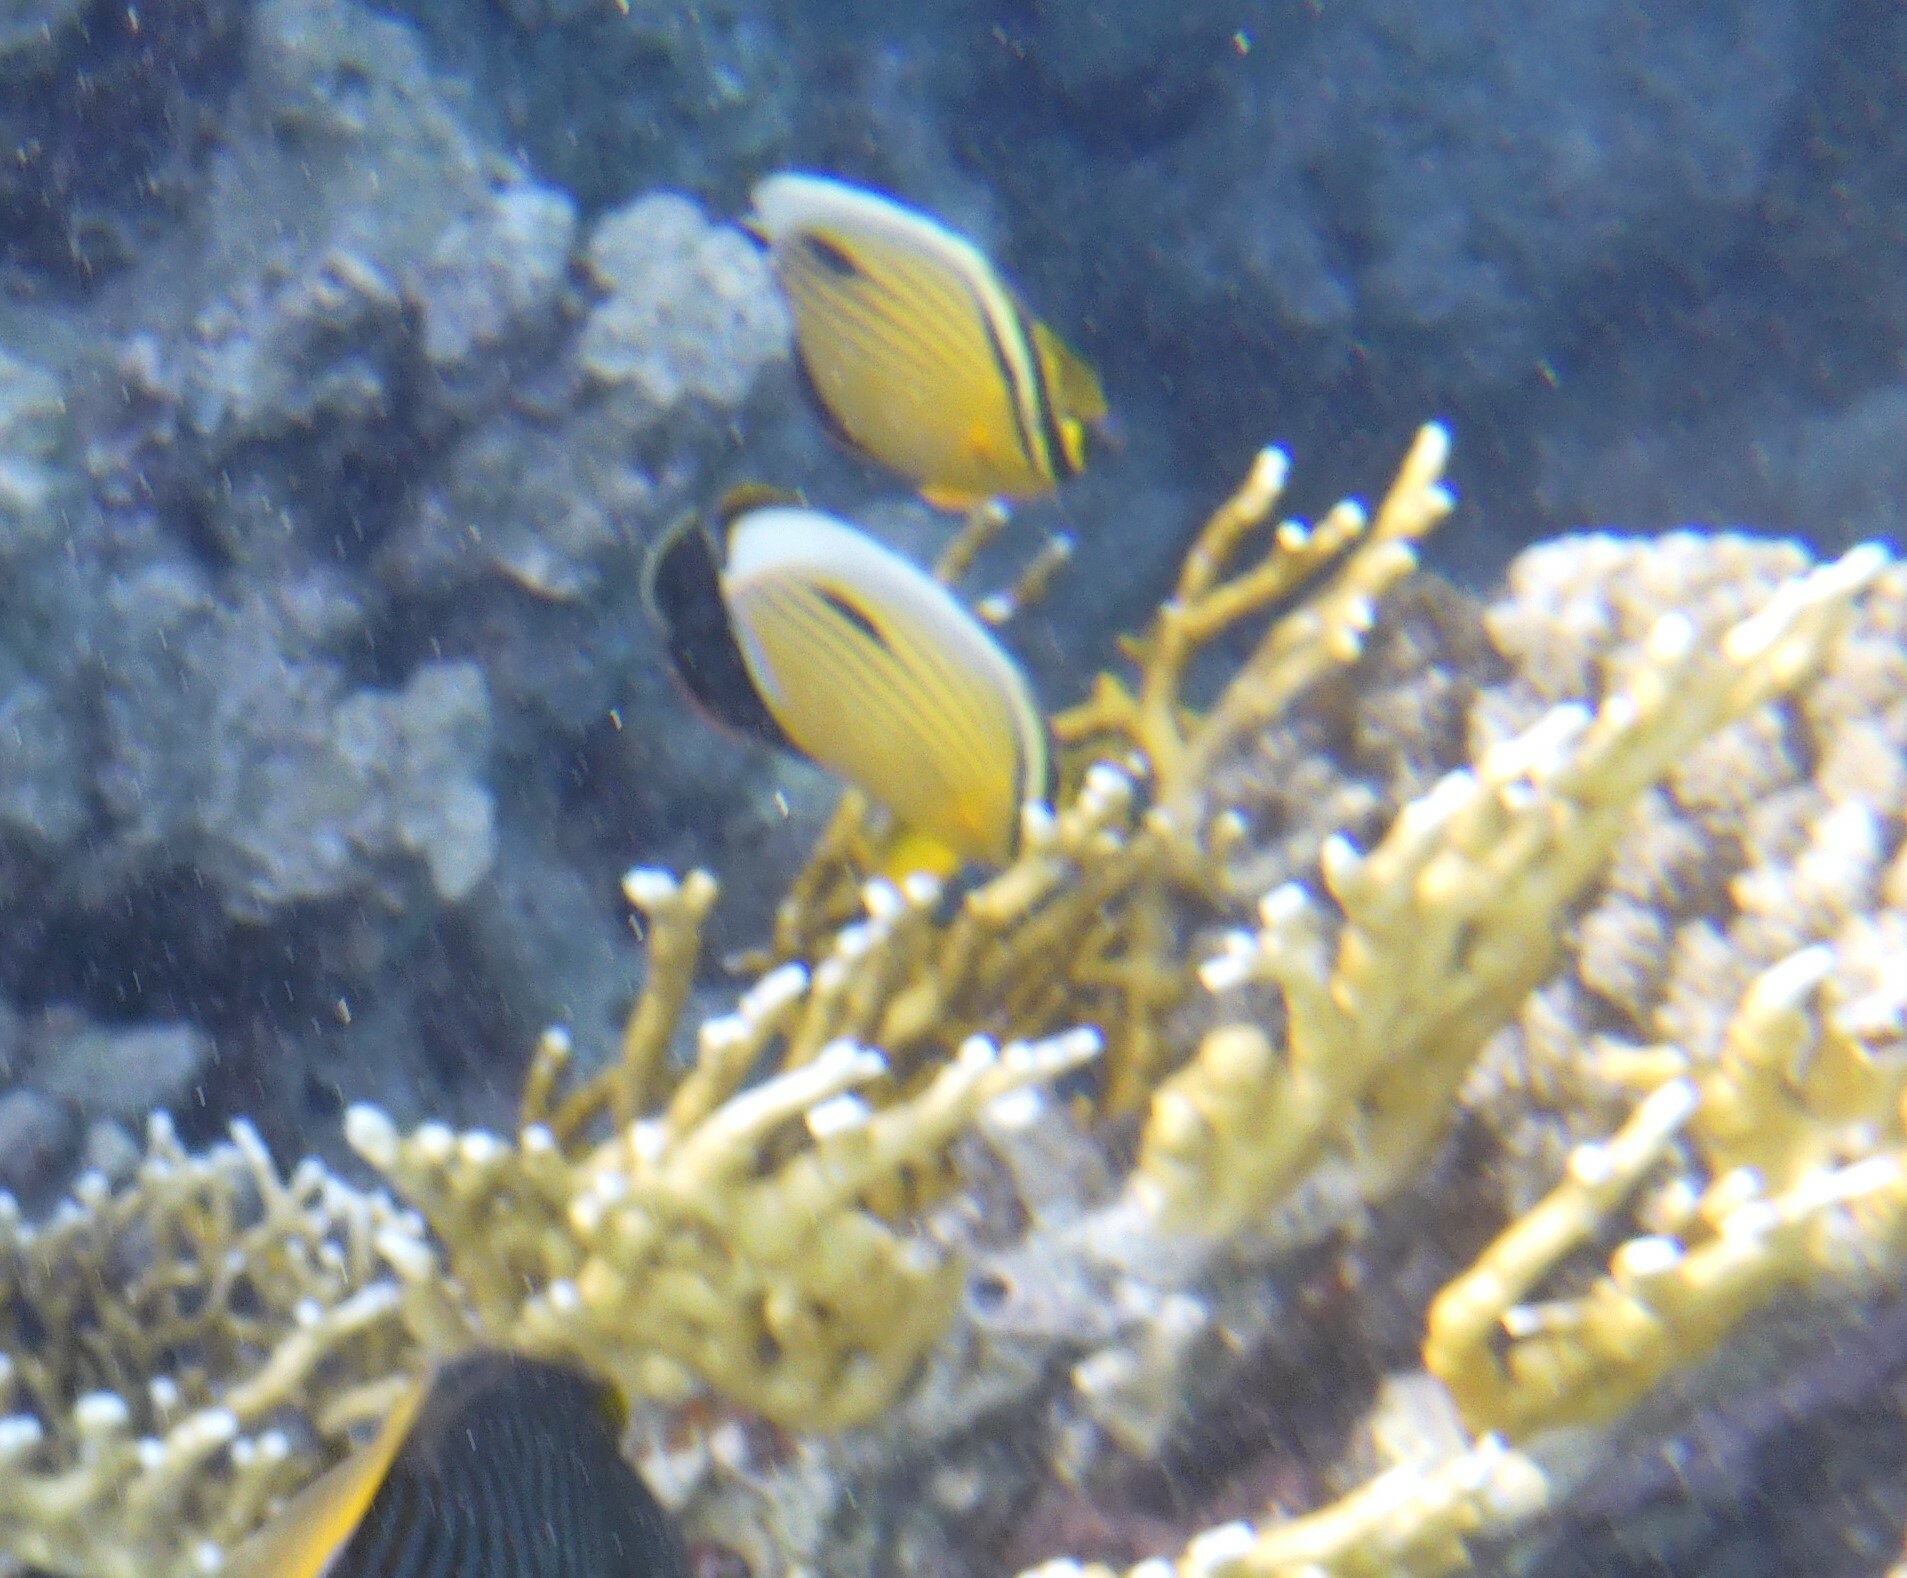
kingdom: Animalia
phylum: Chordata
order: Perciformes
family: Chaetodontidae
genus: Chaetodon
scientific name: Chaetodon austriacus
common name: Exquisite butterflyfish
